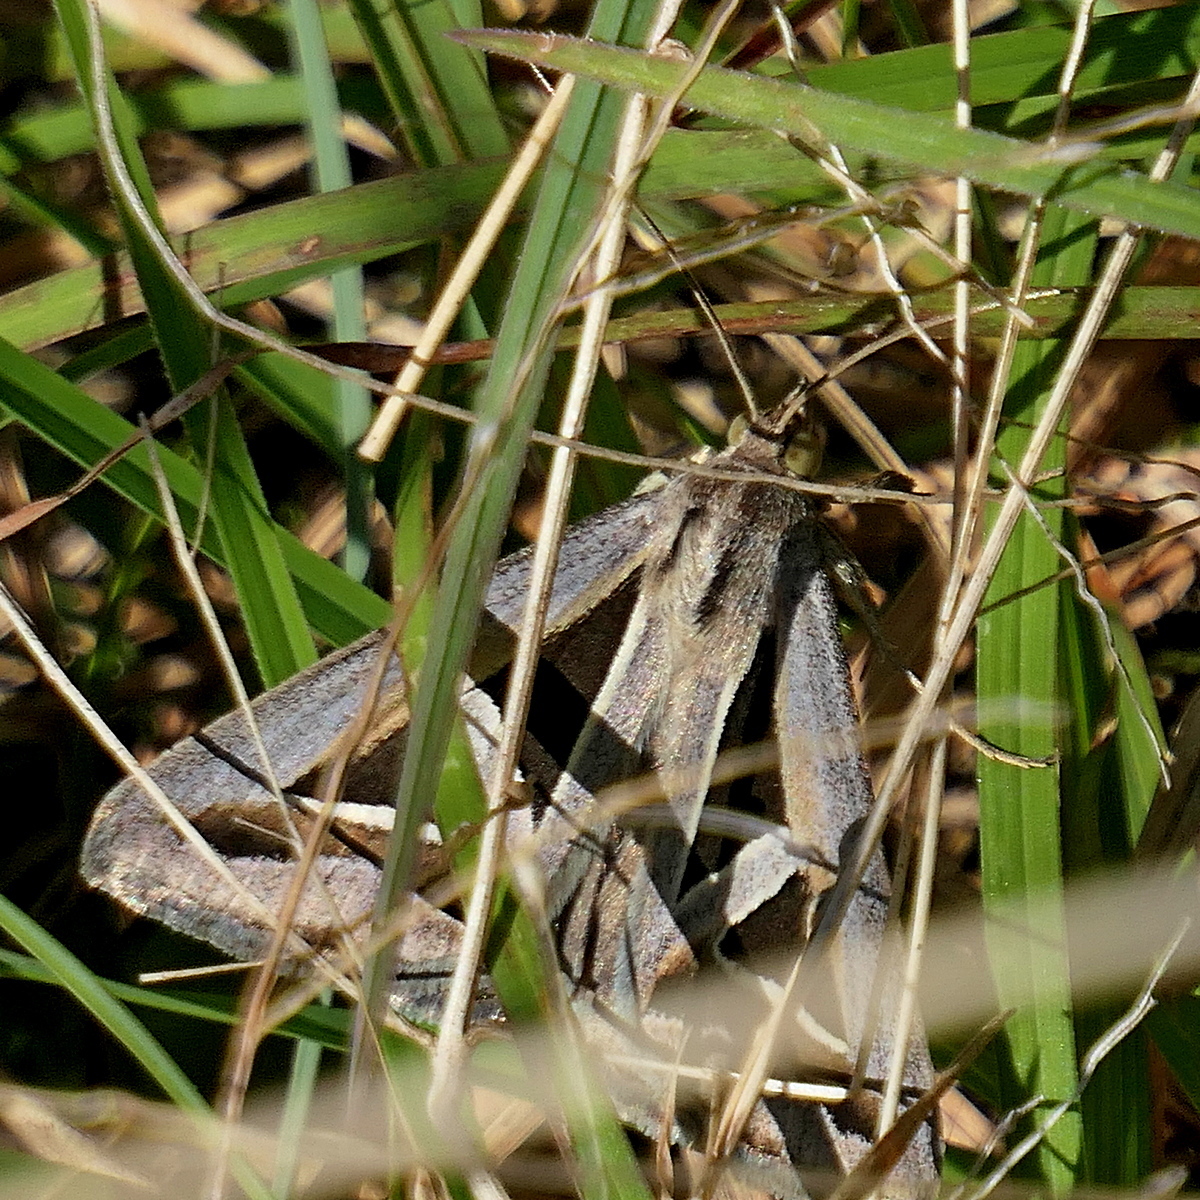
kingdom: Animalia
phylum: Arthropoda
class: Insecta
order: Lepidoptera
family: Erebidae
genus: Trigonodes
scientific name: Trigonodes hyppasia
